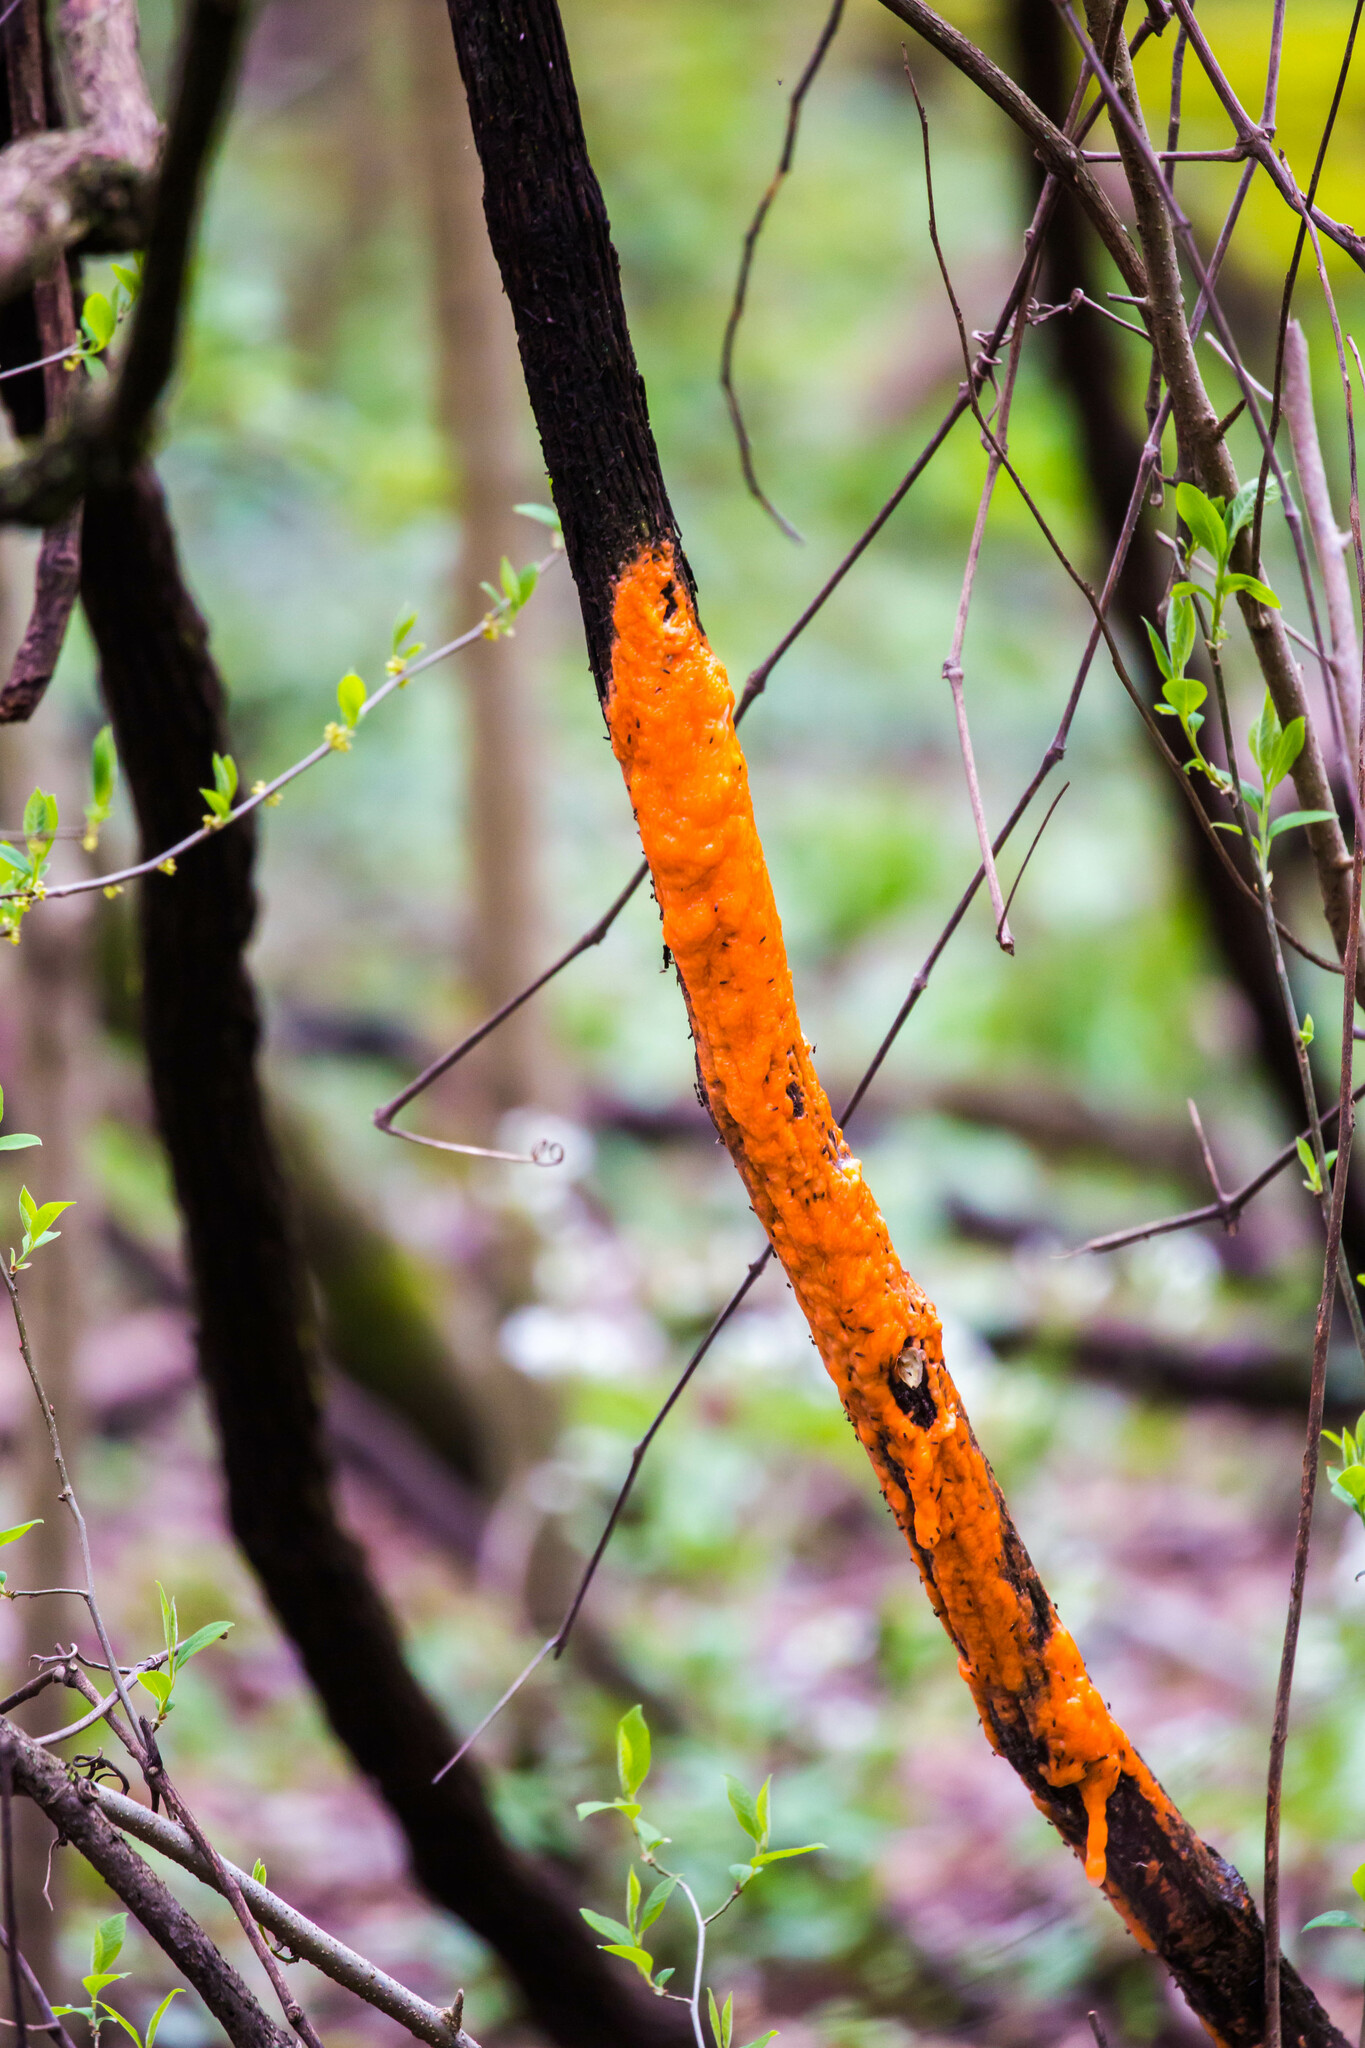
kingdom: Fungi
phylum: Ascomycota
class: Sordariomycetes
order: Hypocreales
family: Nectriaceae
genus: Fusicolla
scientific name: Fusicolla merismoides
